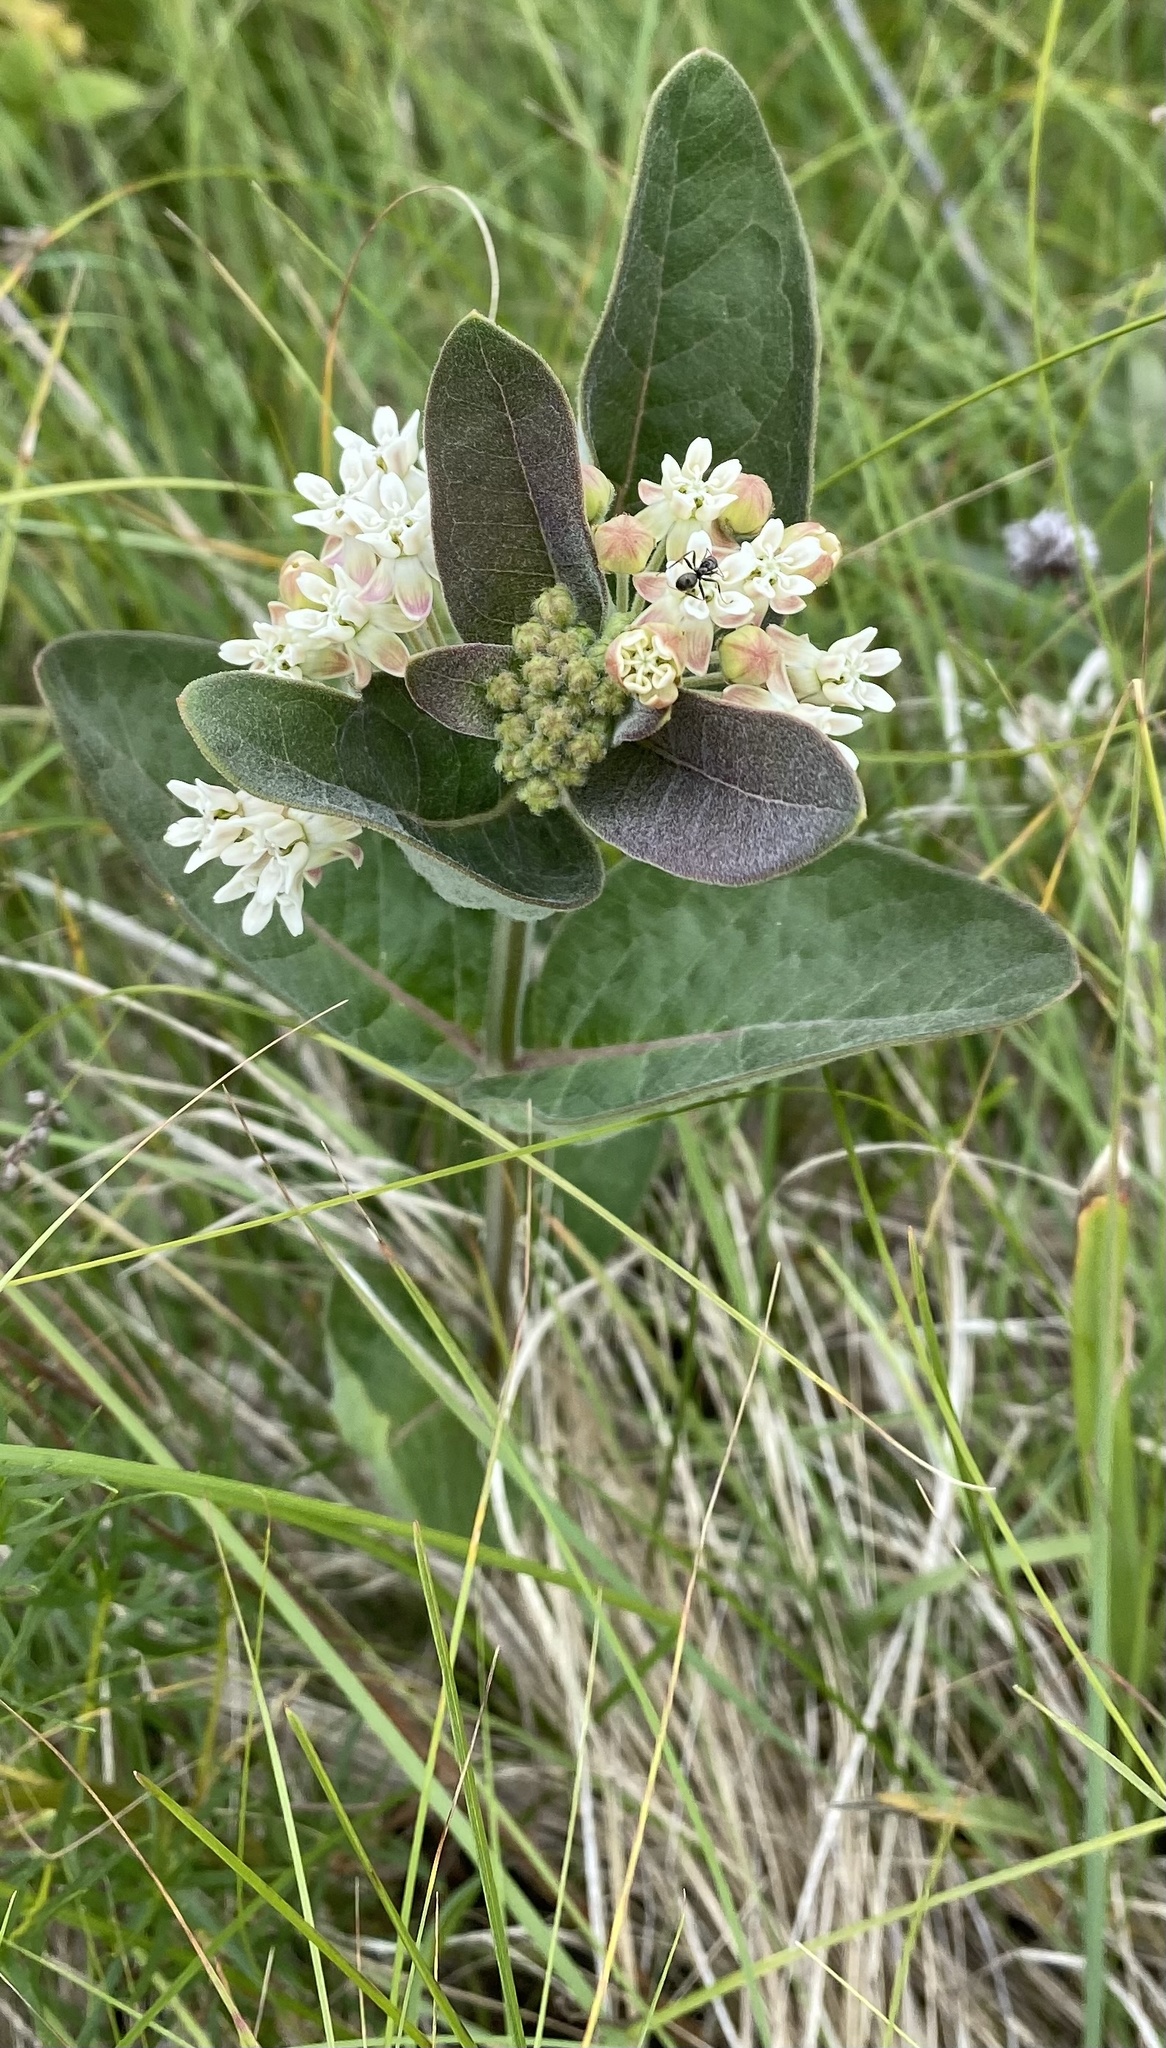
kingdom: Plantae
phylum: Tracheophyta
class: Magnoliopsida
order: Gentianales
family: Apocynaceae
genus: Asclepias
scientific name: Asclepias ovalifolia
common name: Dwarf milkweed
